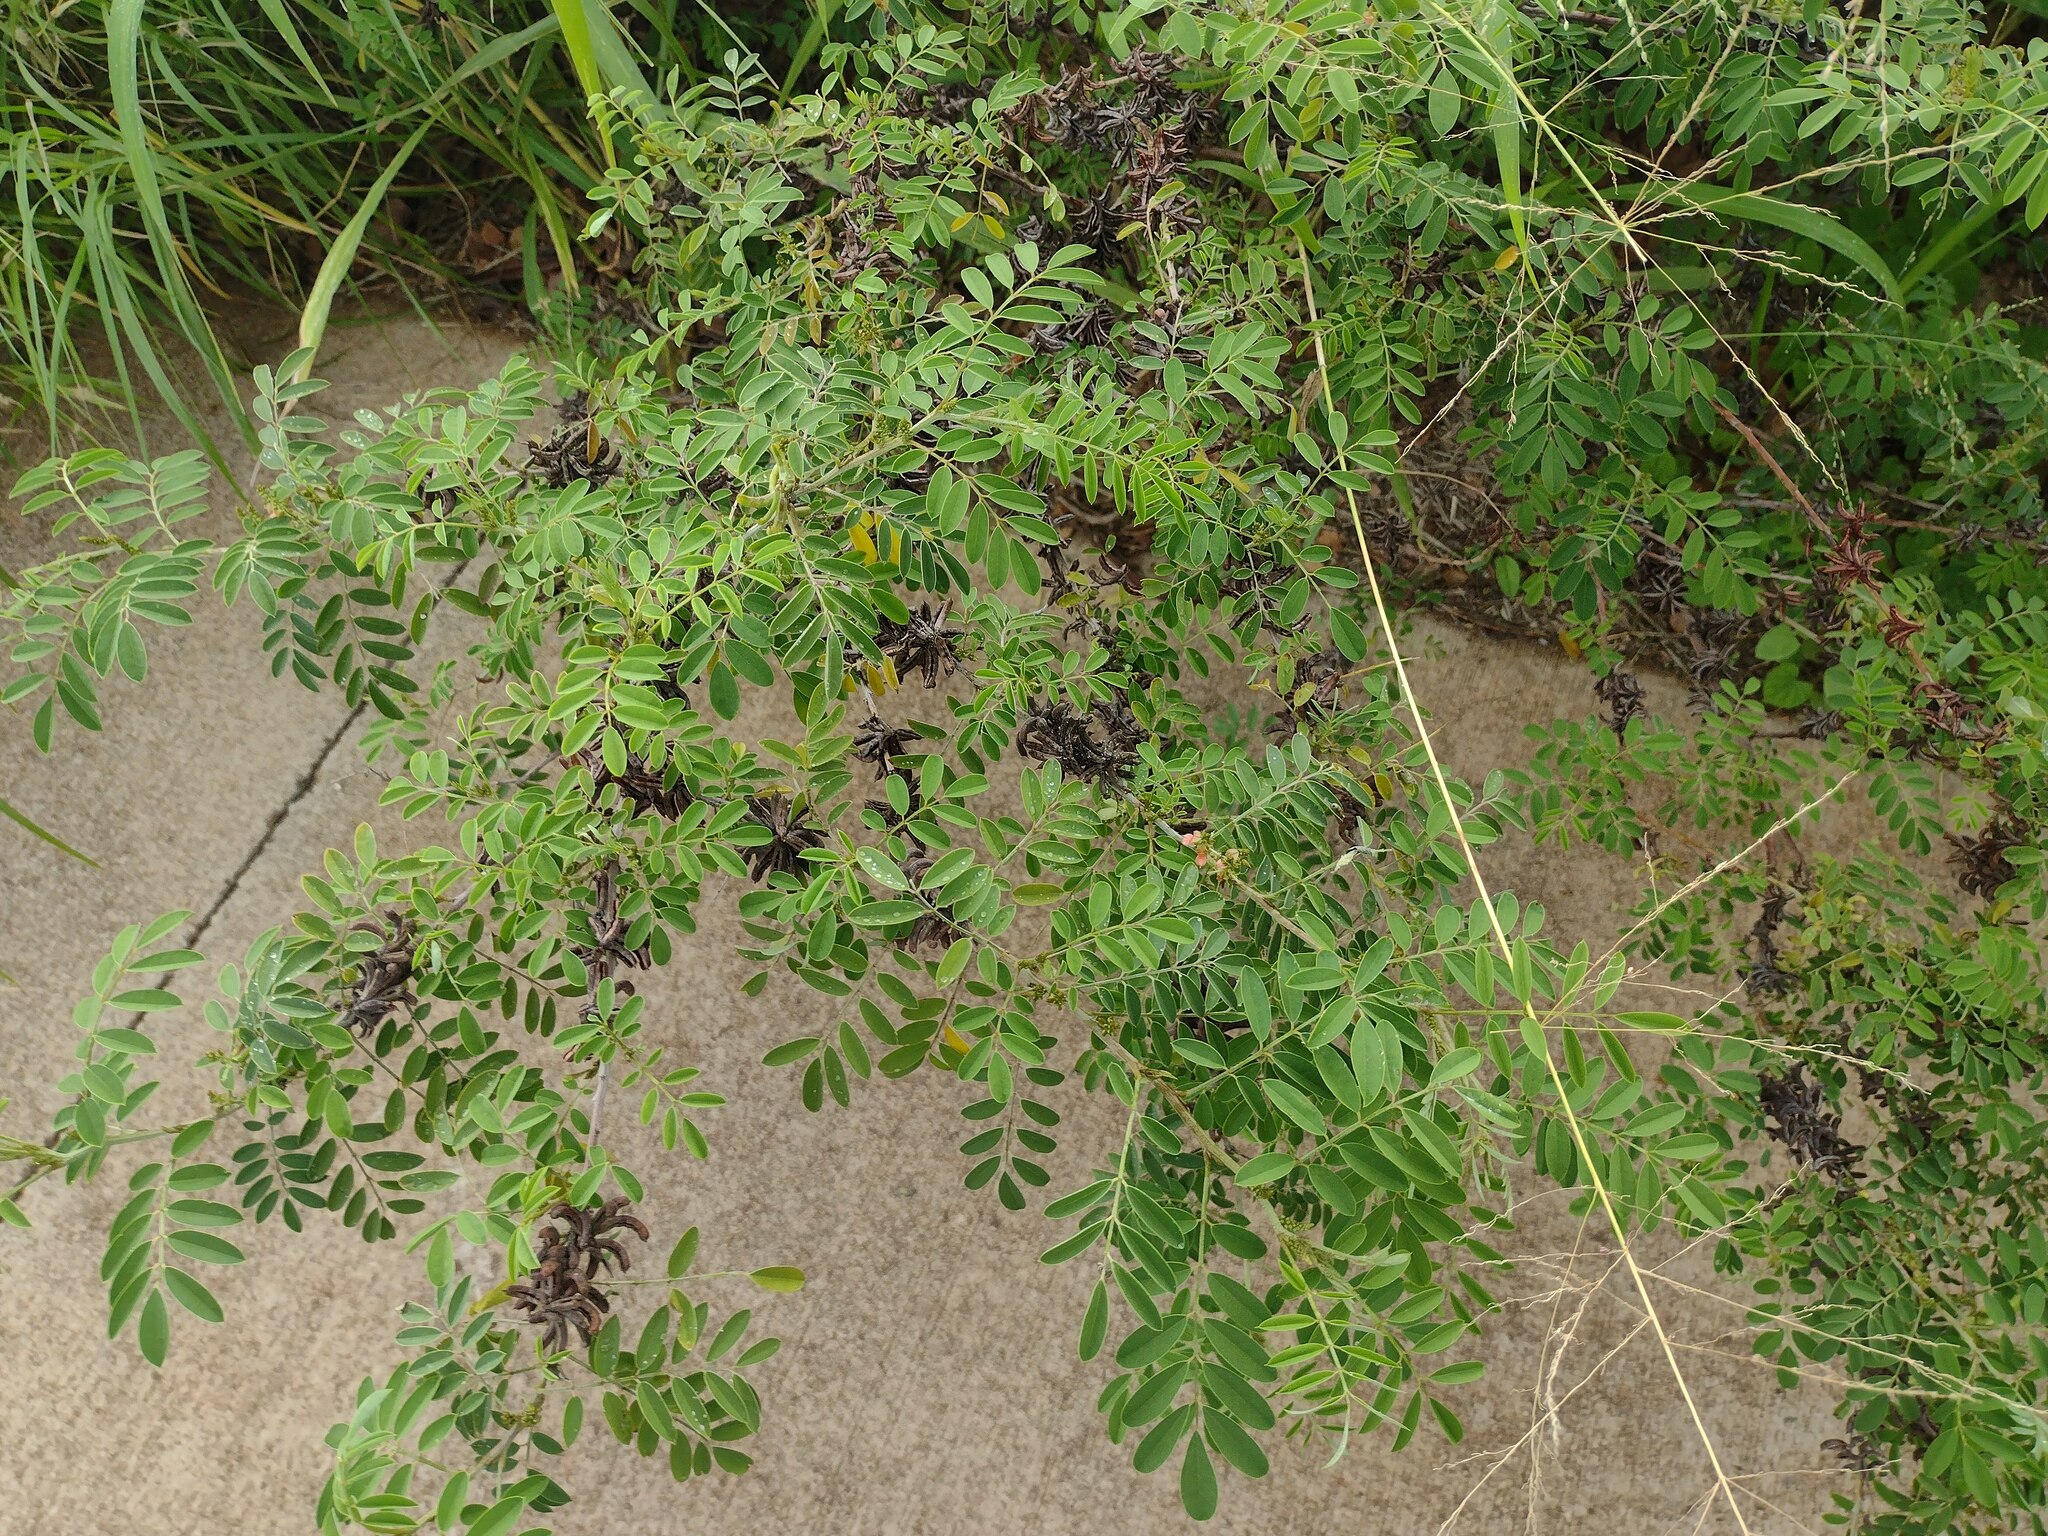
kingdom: Plantae
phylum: Tracheophyta
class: Magnoliopsida
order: Fabales
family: Fabaceae
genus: Indigofera
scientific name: Indigofera suffruticosa
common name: Anil de pasto
